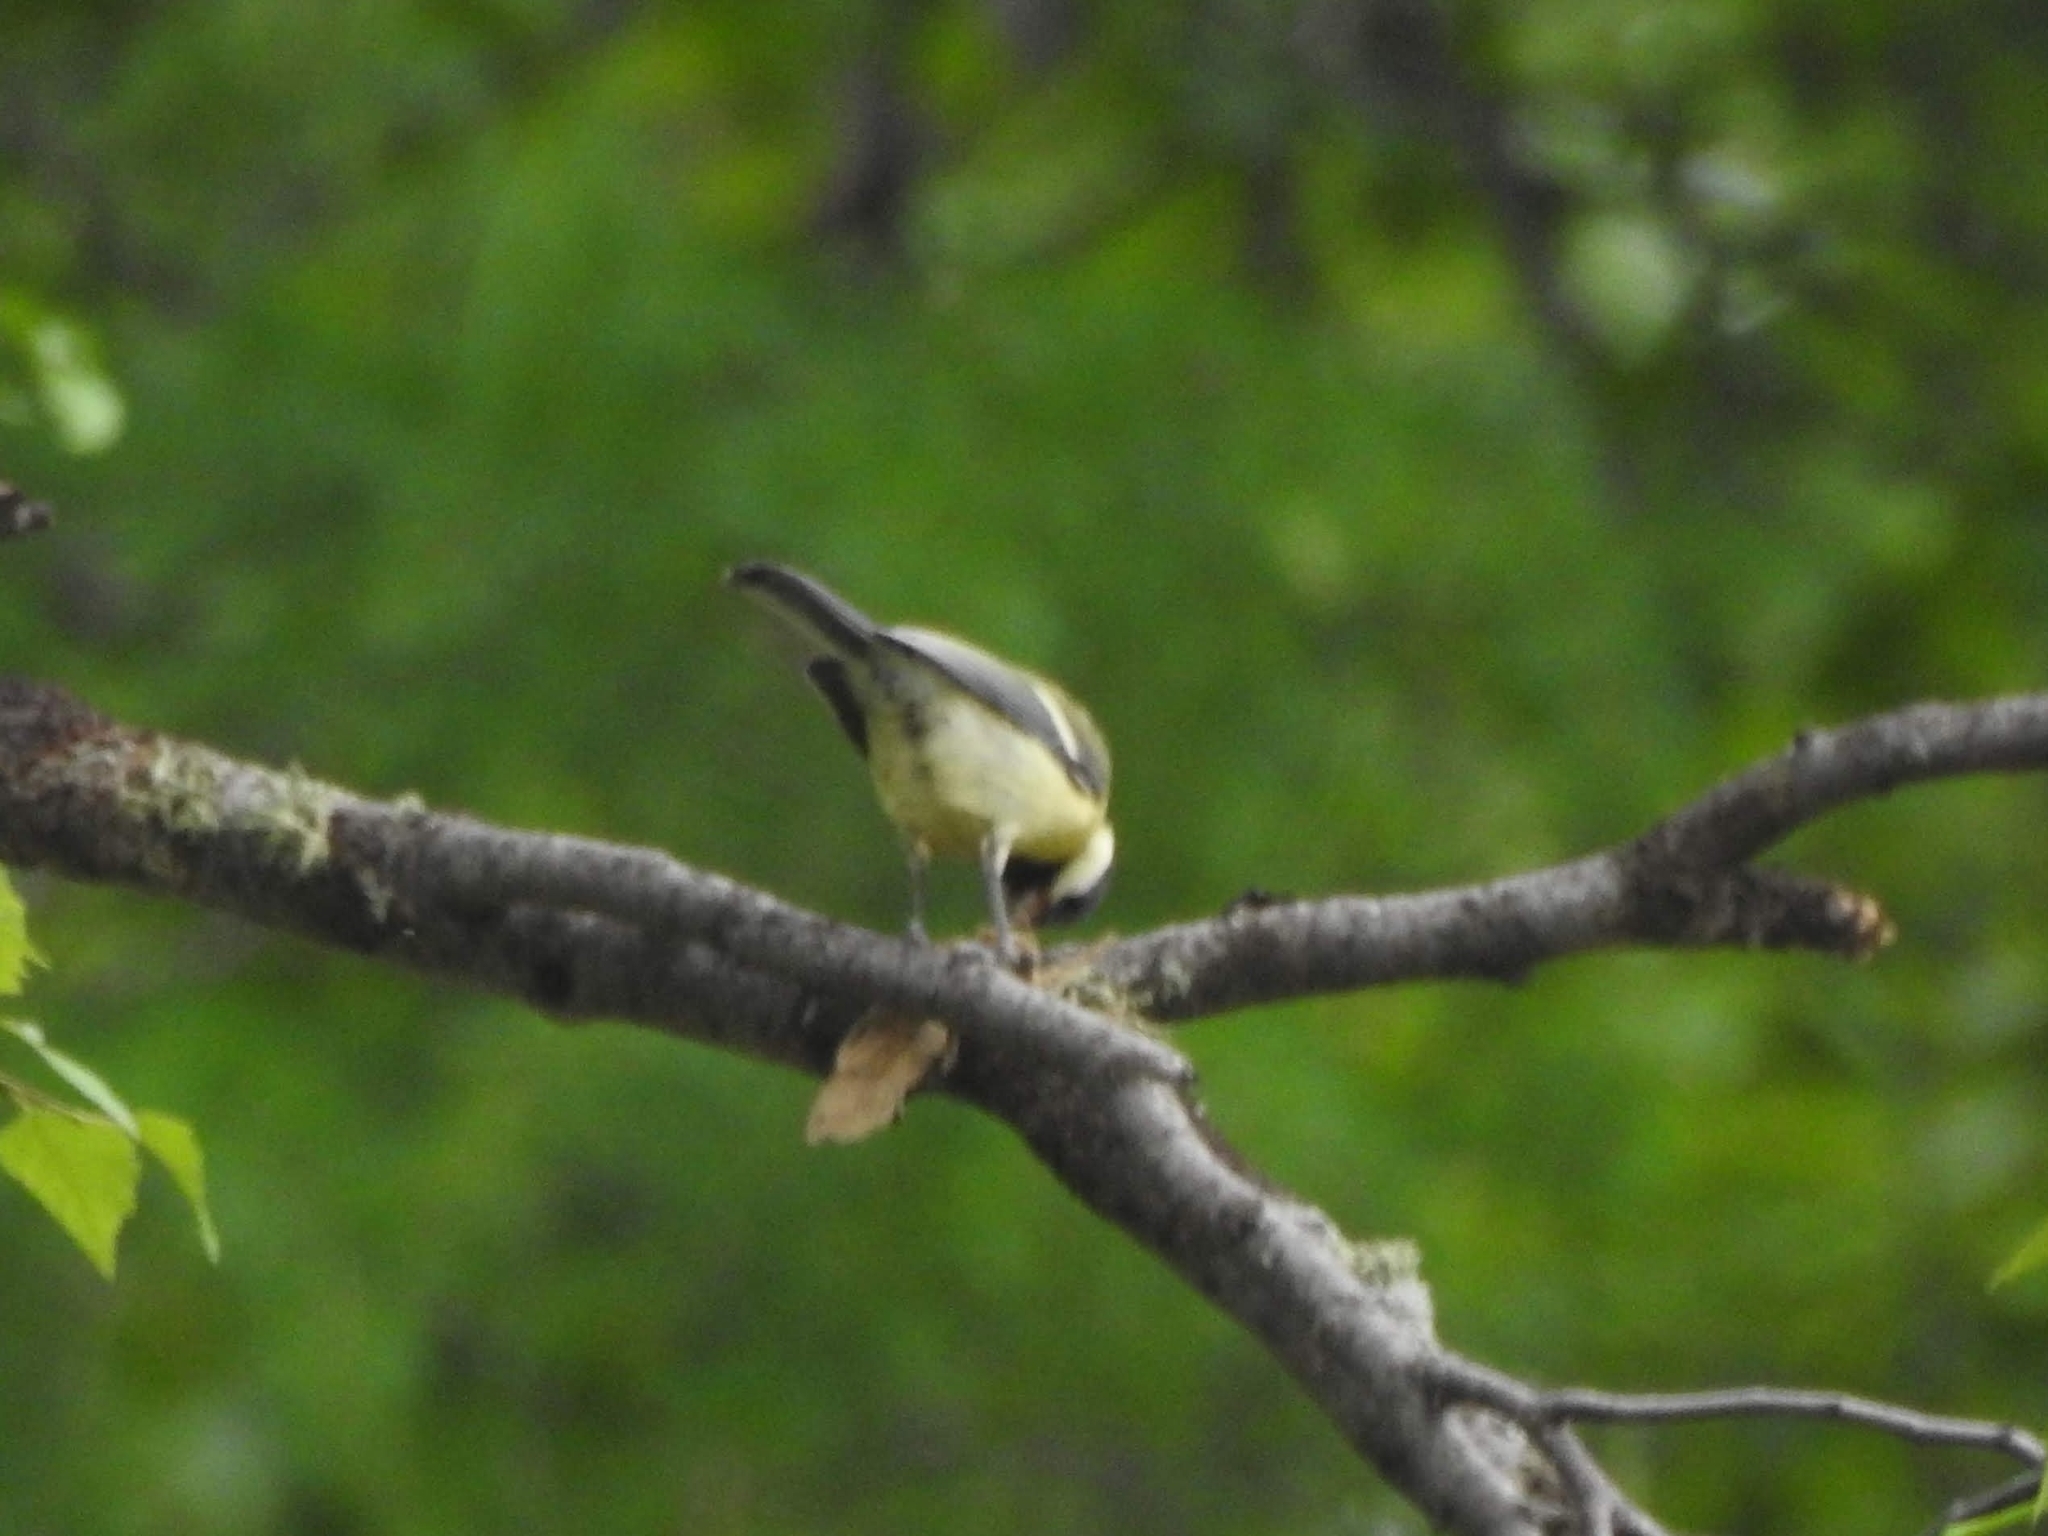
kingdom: Animalia
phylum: Chordata
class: Aves
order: Passeriformes
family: Paridae
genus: Parus
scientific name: Parus major
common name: Great tit
